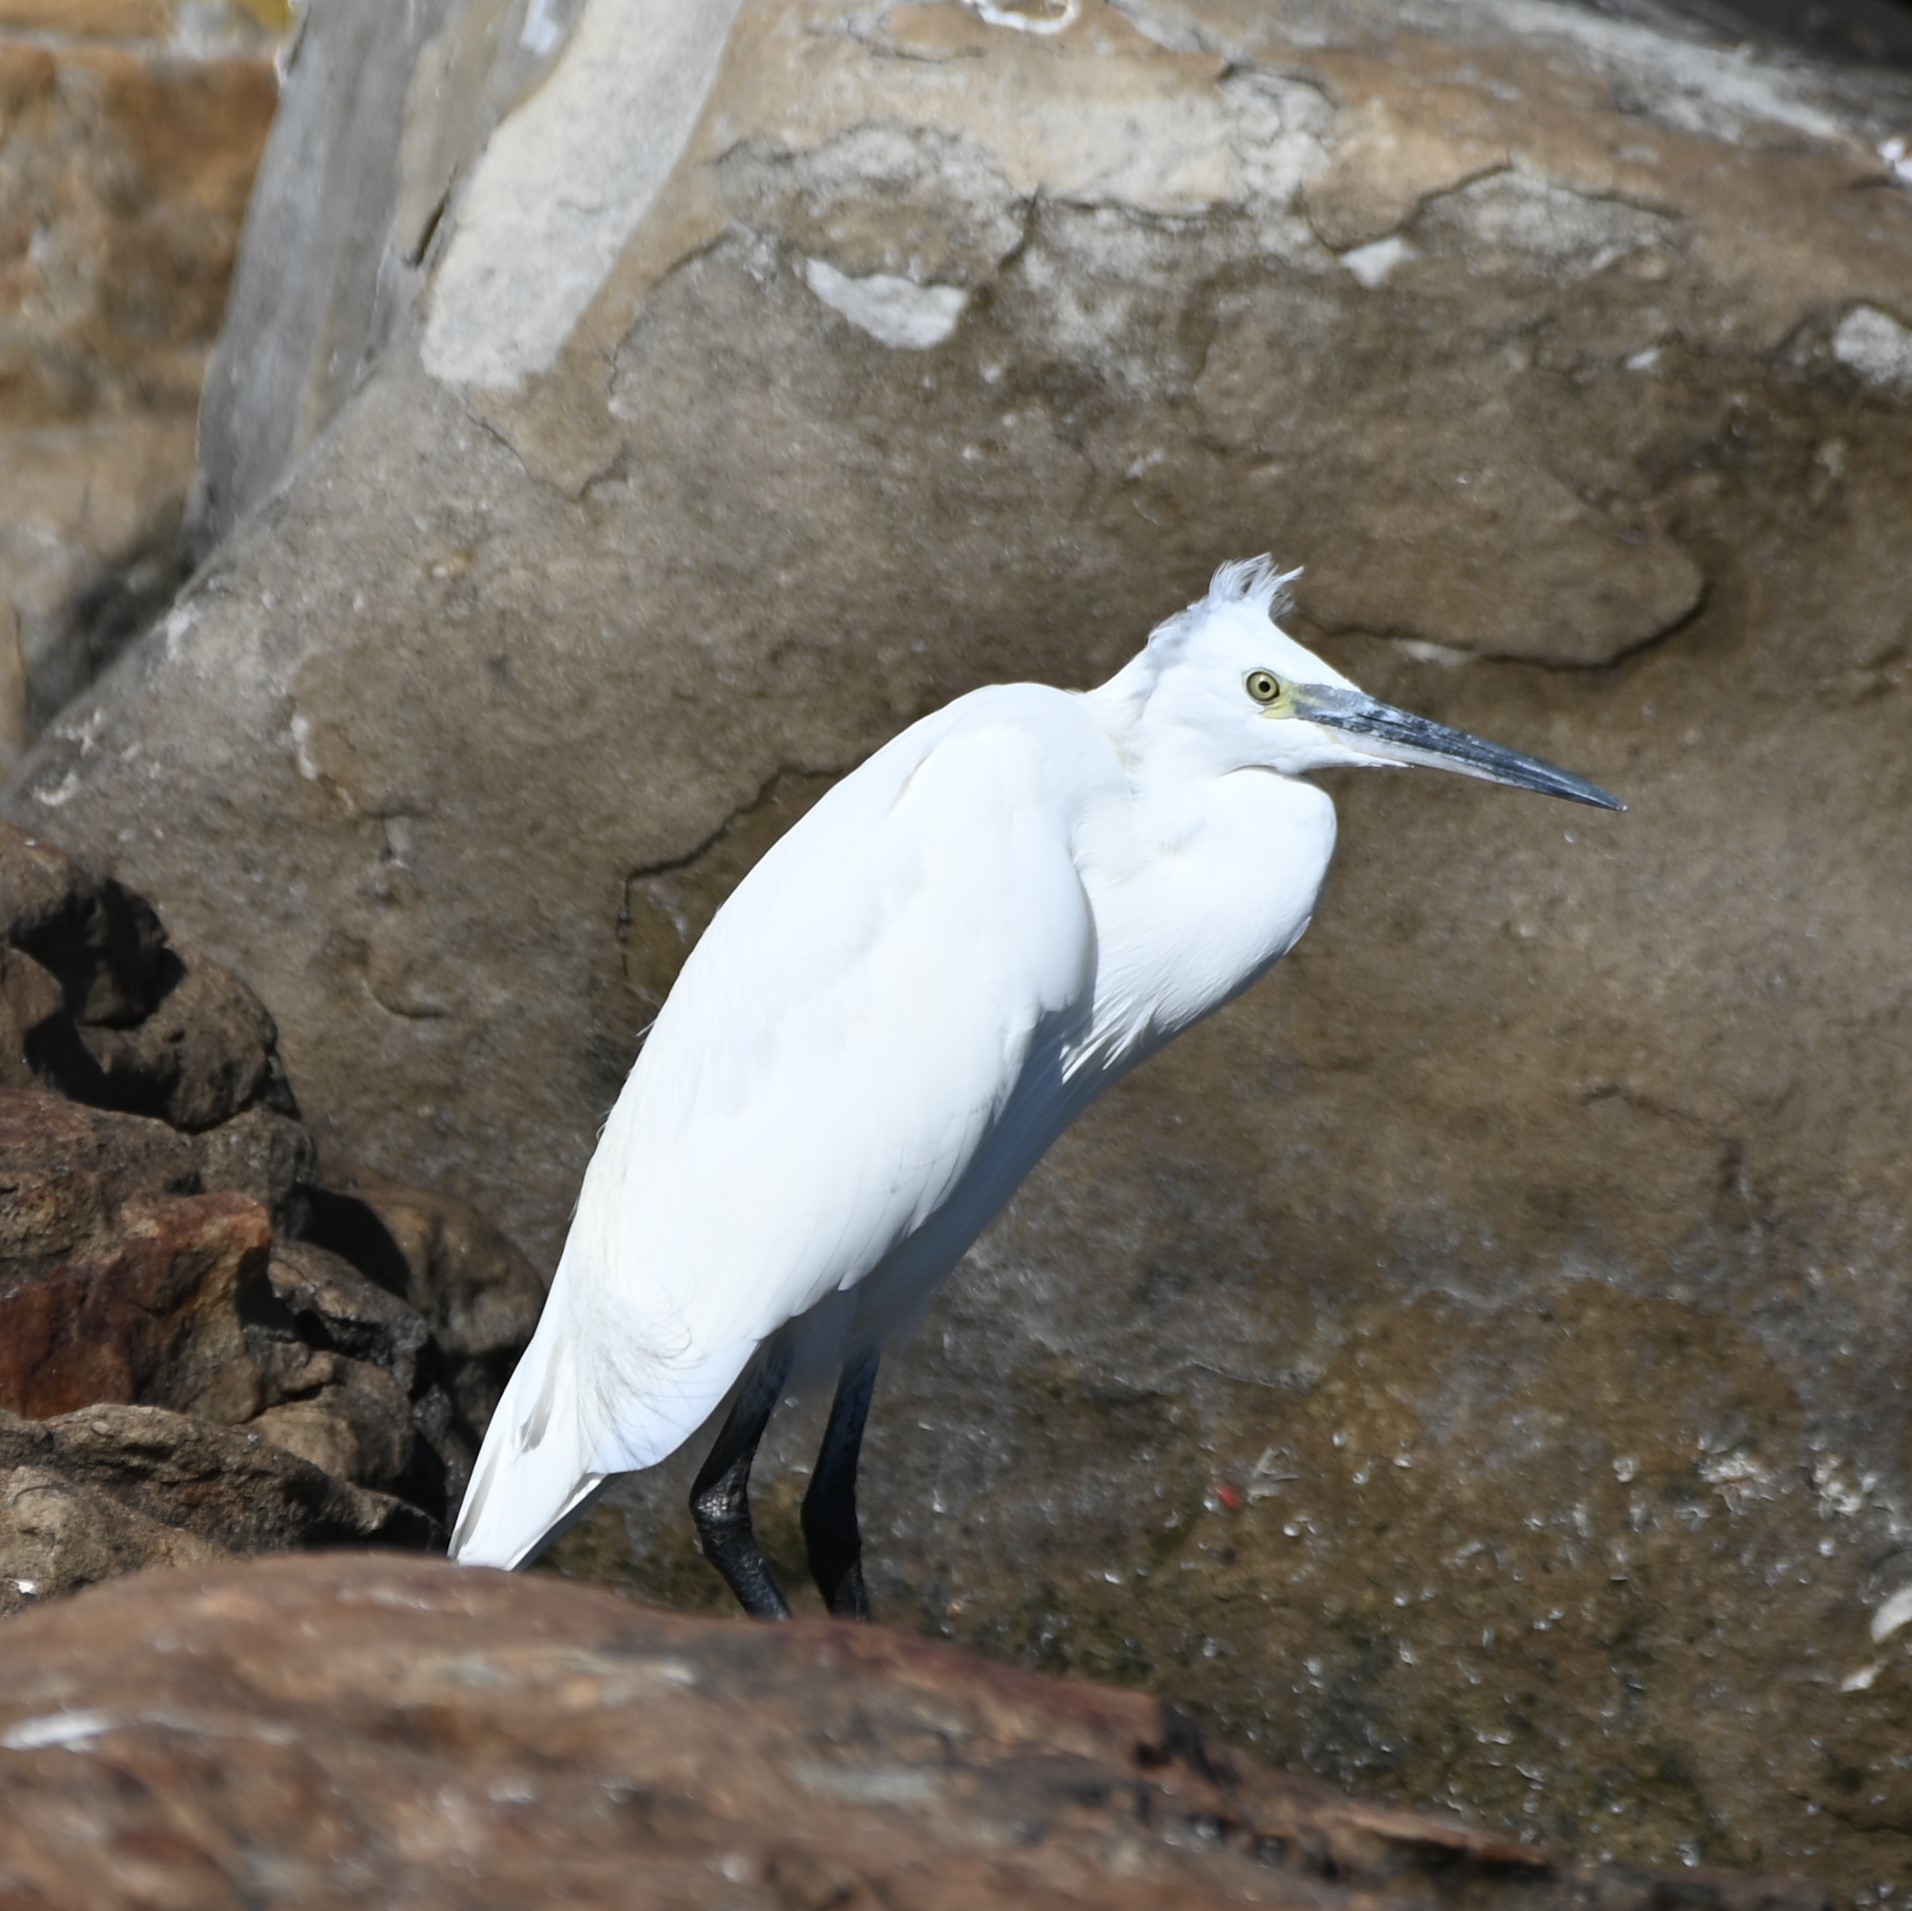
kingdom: Animalia
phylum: Chordata
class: Aves
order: Pelecaniformes
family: Ardeidae
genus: Egretta
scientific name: Egretta garzetta
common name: Little egret
